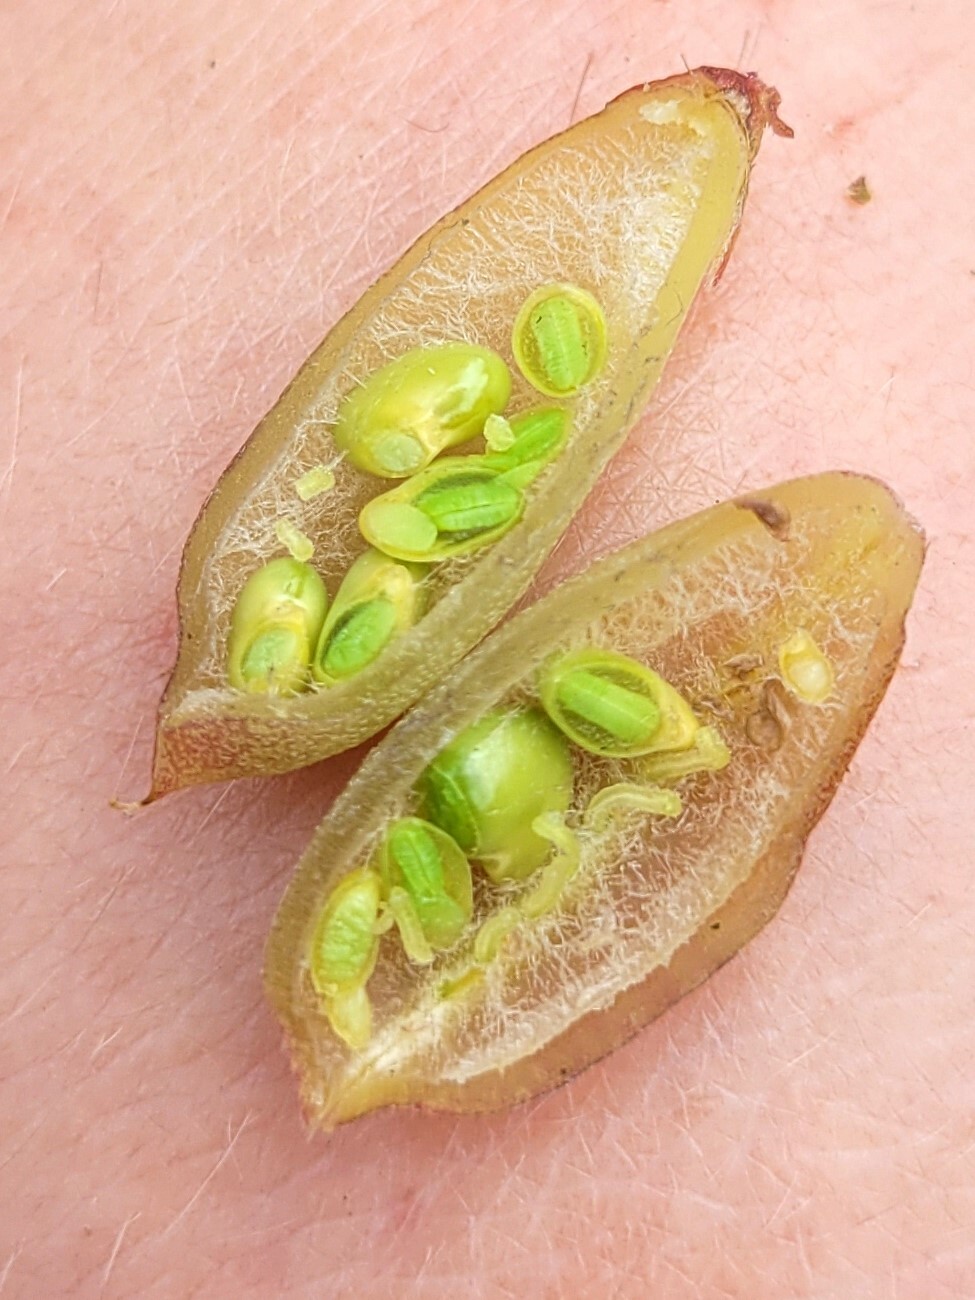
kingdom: Plantae
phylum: Tracheophyta
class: Magnoliopsida
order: Fabales
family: Fabaceae
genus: Montigena
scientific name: Montigena novae-zelandiae
